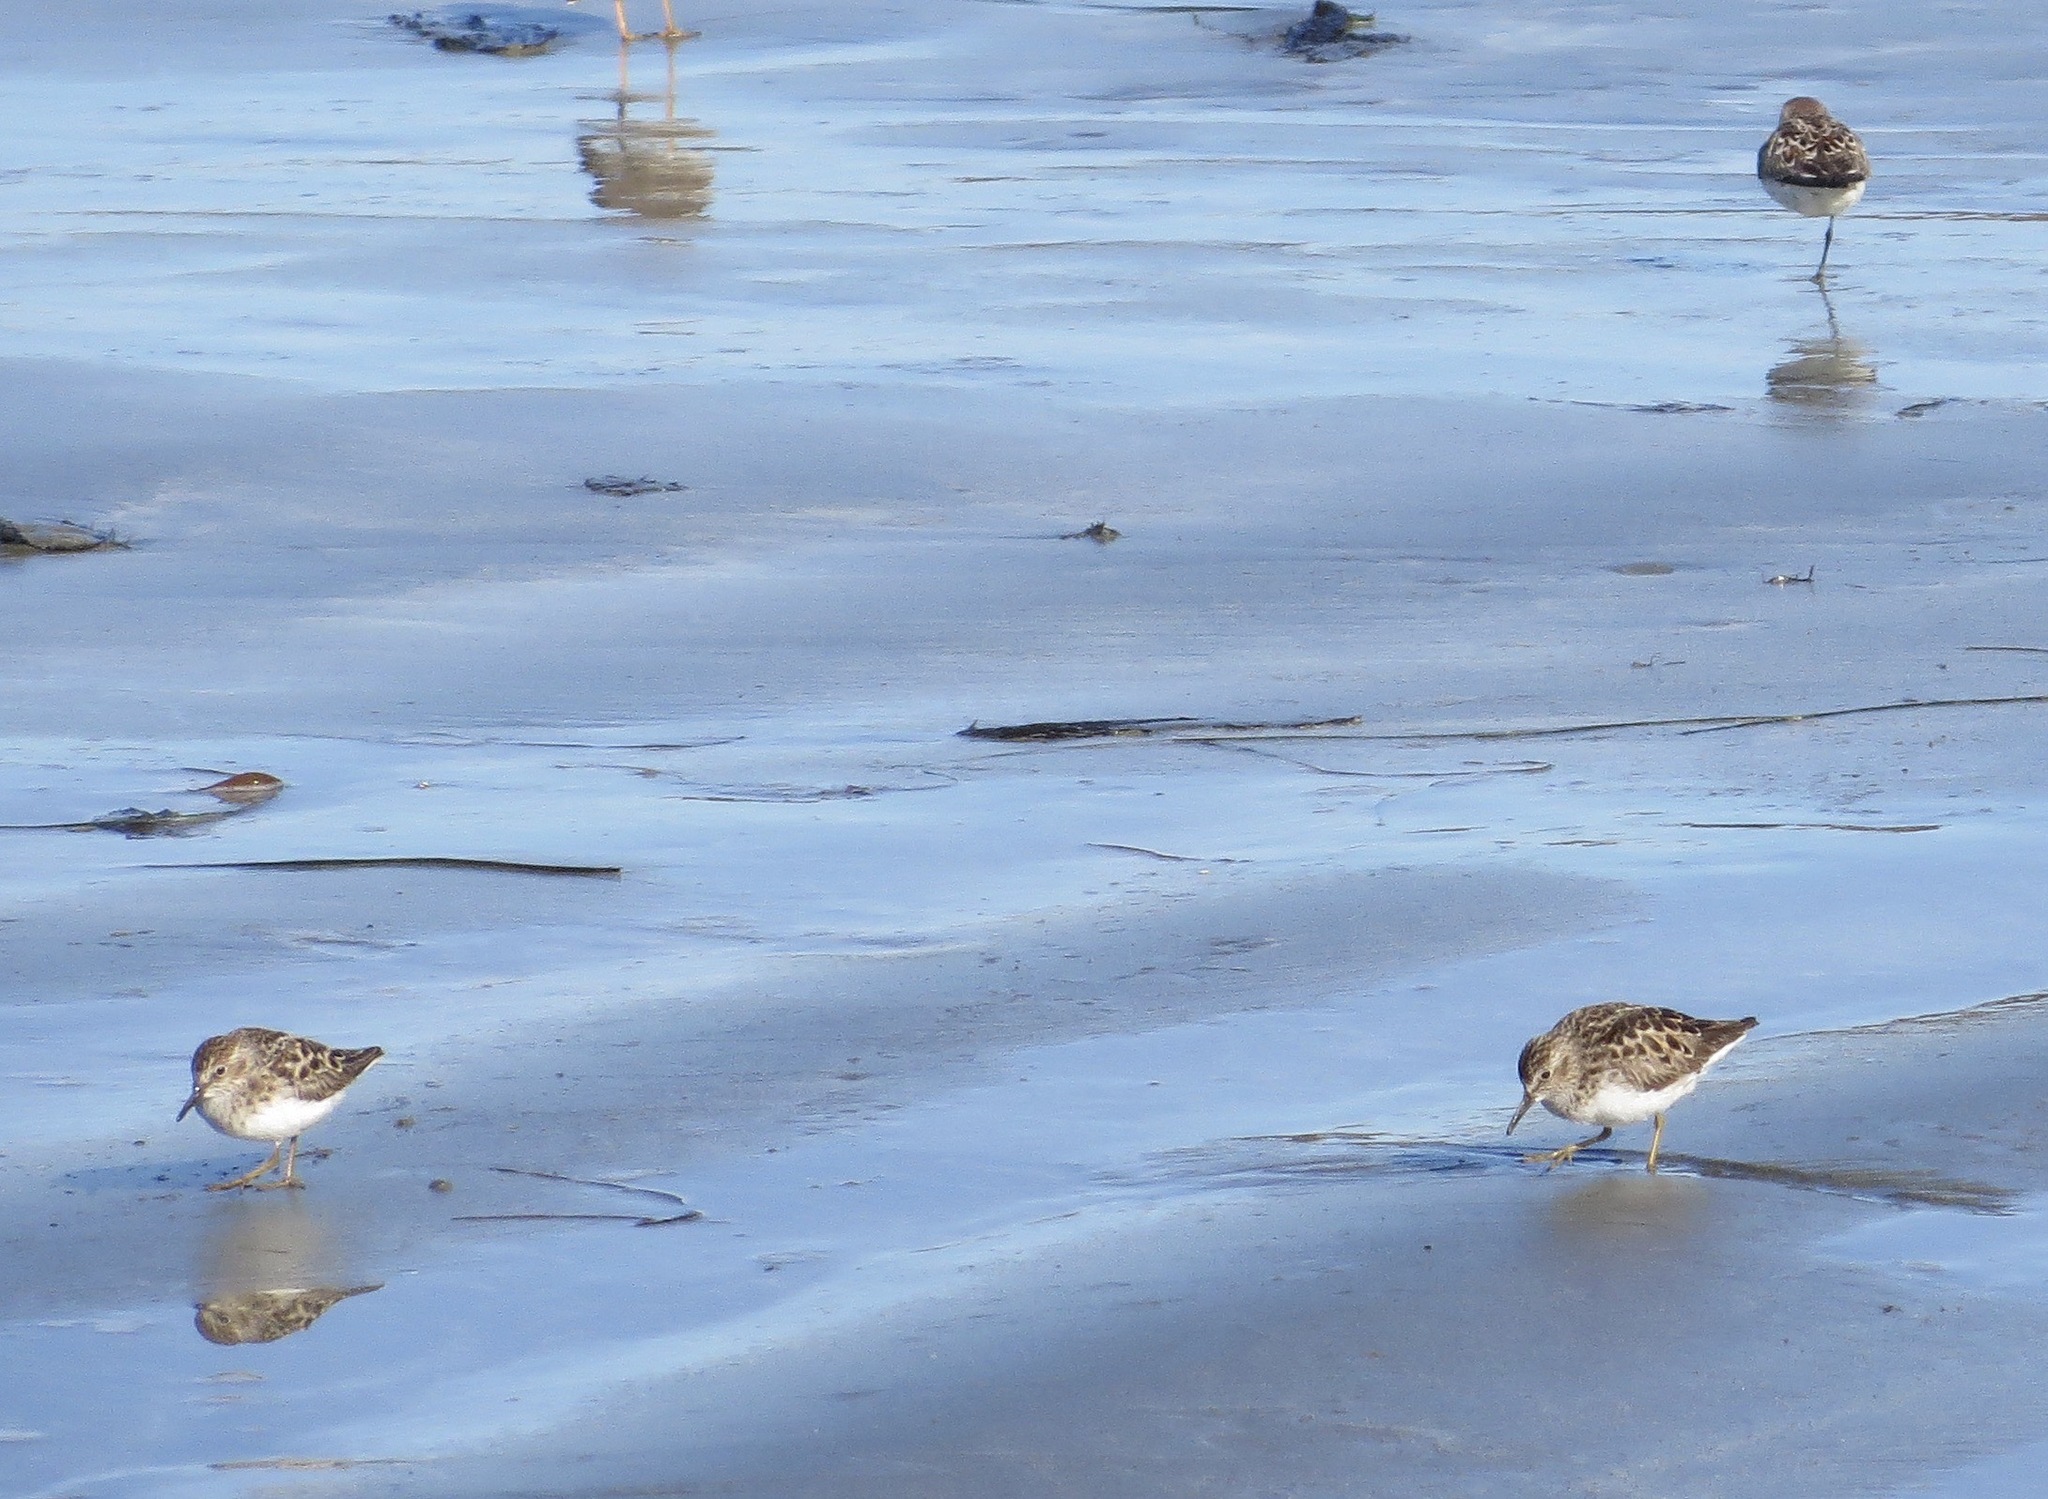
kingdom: Animalia
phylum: Chordata
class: Aves
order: Charadriiformes
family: Scolopacidae
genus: Calidris
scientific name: Calidris minutilla
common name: Least sandpiper
